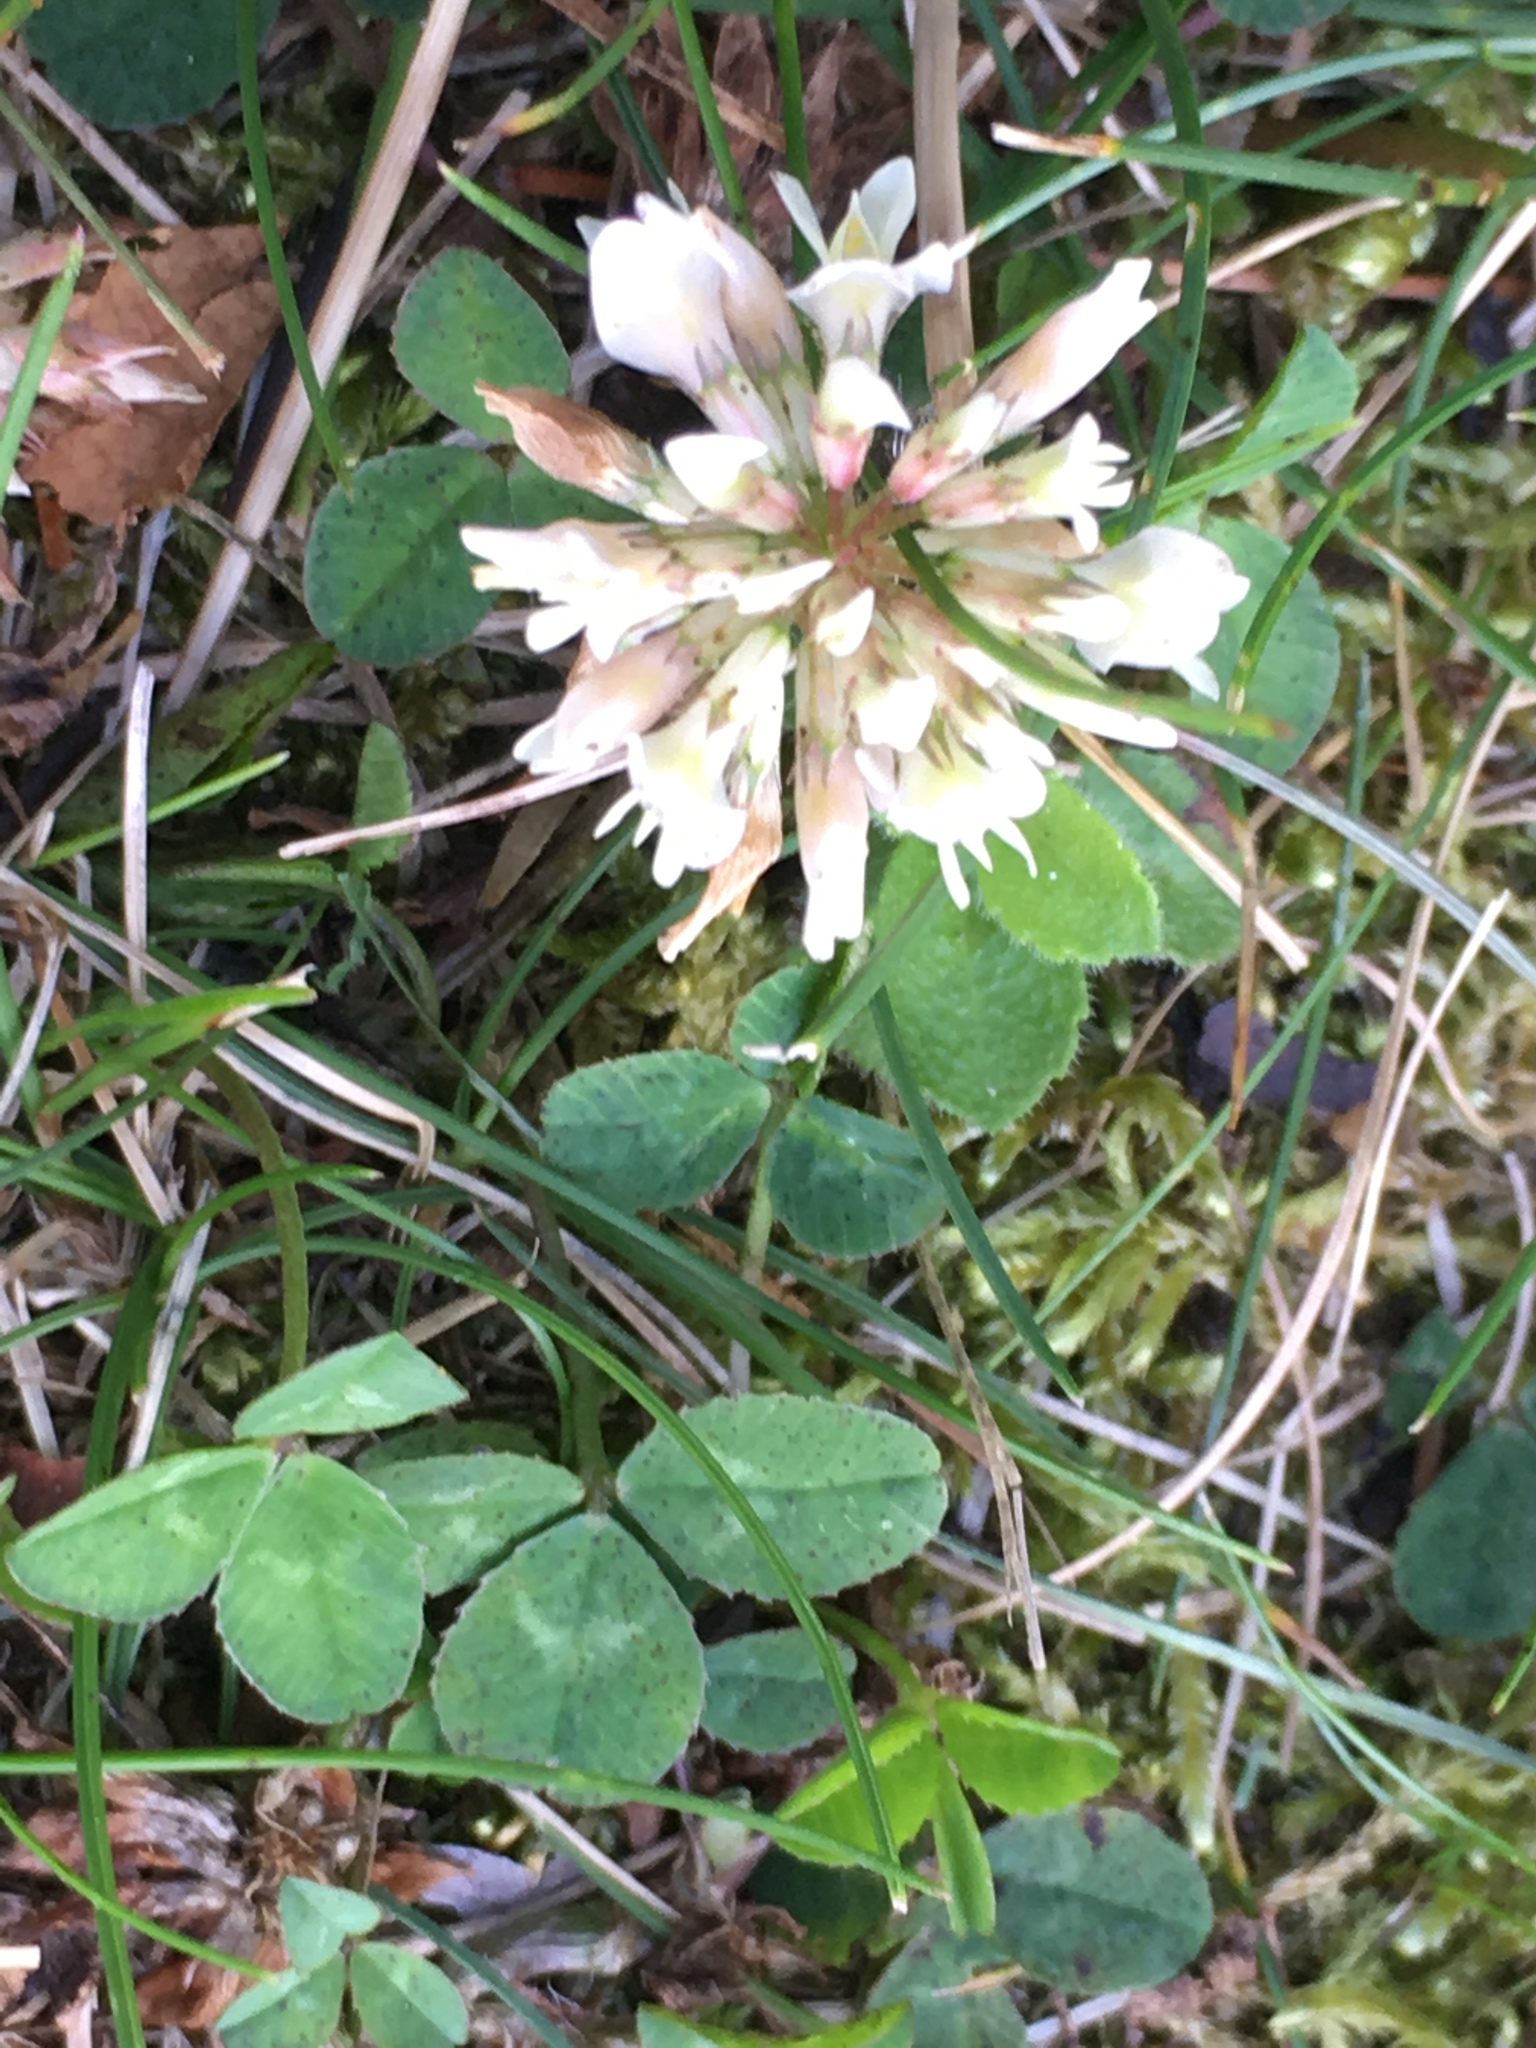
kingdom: Plantae
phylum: Tracheophyta
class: Magnoliopsida
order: Fabales
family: Fabaceae
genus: Trifolium
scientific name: Trifolium repens
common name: White clover
